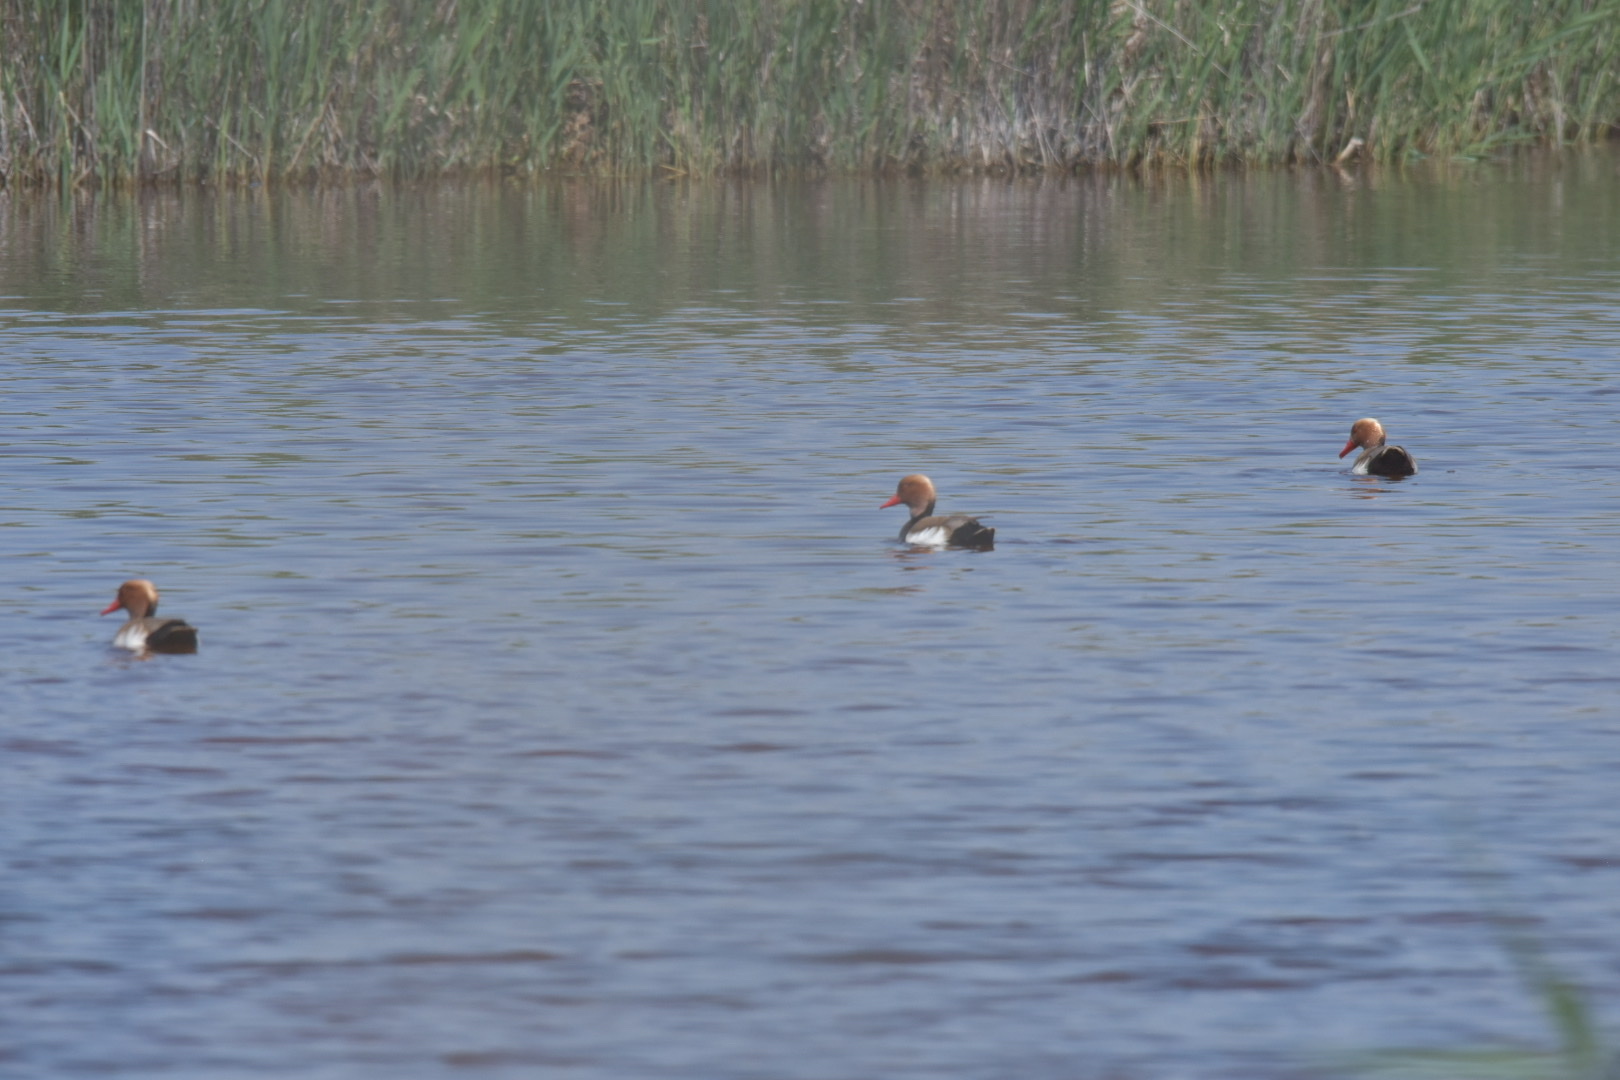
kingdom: Animalia
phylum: Chordata
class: Aves
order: Anseriformes
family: Anatidae
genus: Netta
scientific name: Netta rufina
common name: Red-crested pochard
